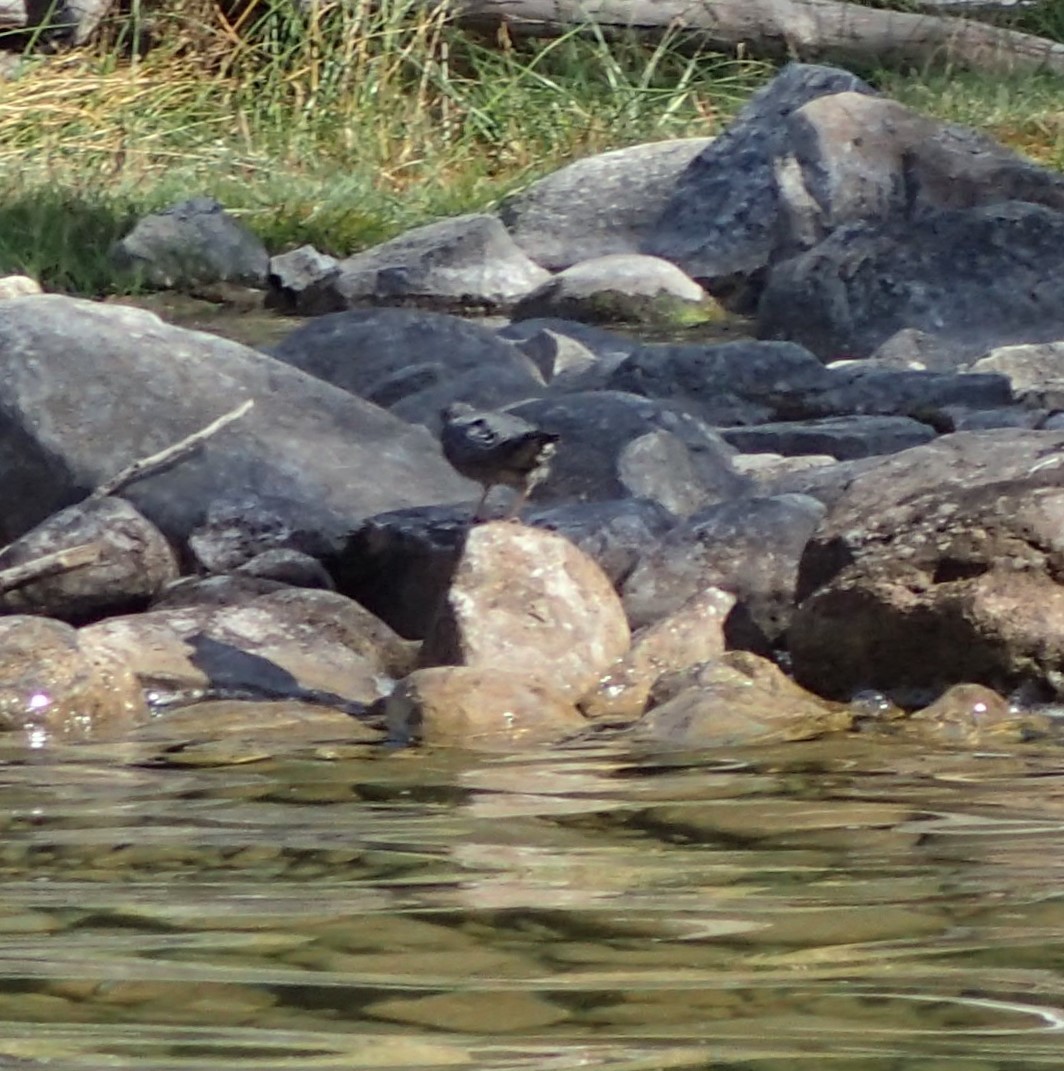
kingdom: Animalia
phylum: Chordata
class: Aves
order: Passeriformes
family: Cinclidae
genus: Cinclus
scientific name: Cinclus mexicanus
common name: American dipper
